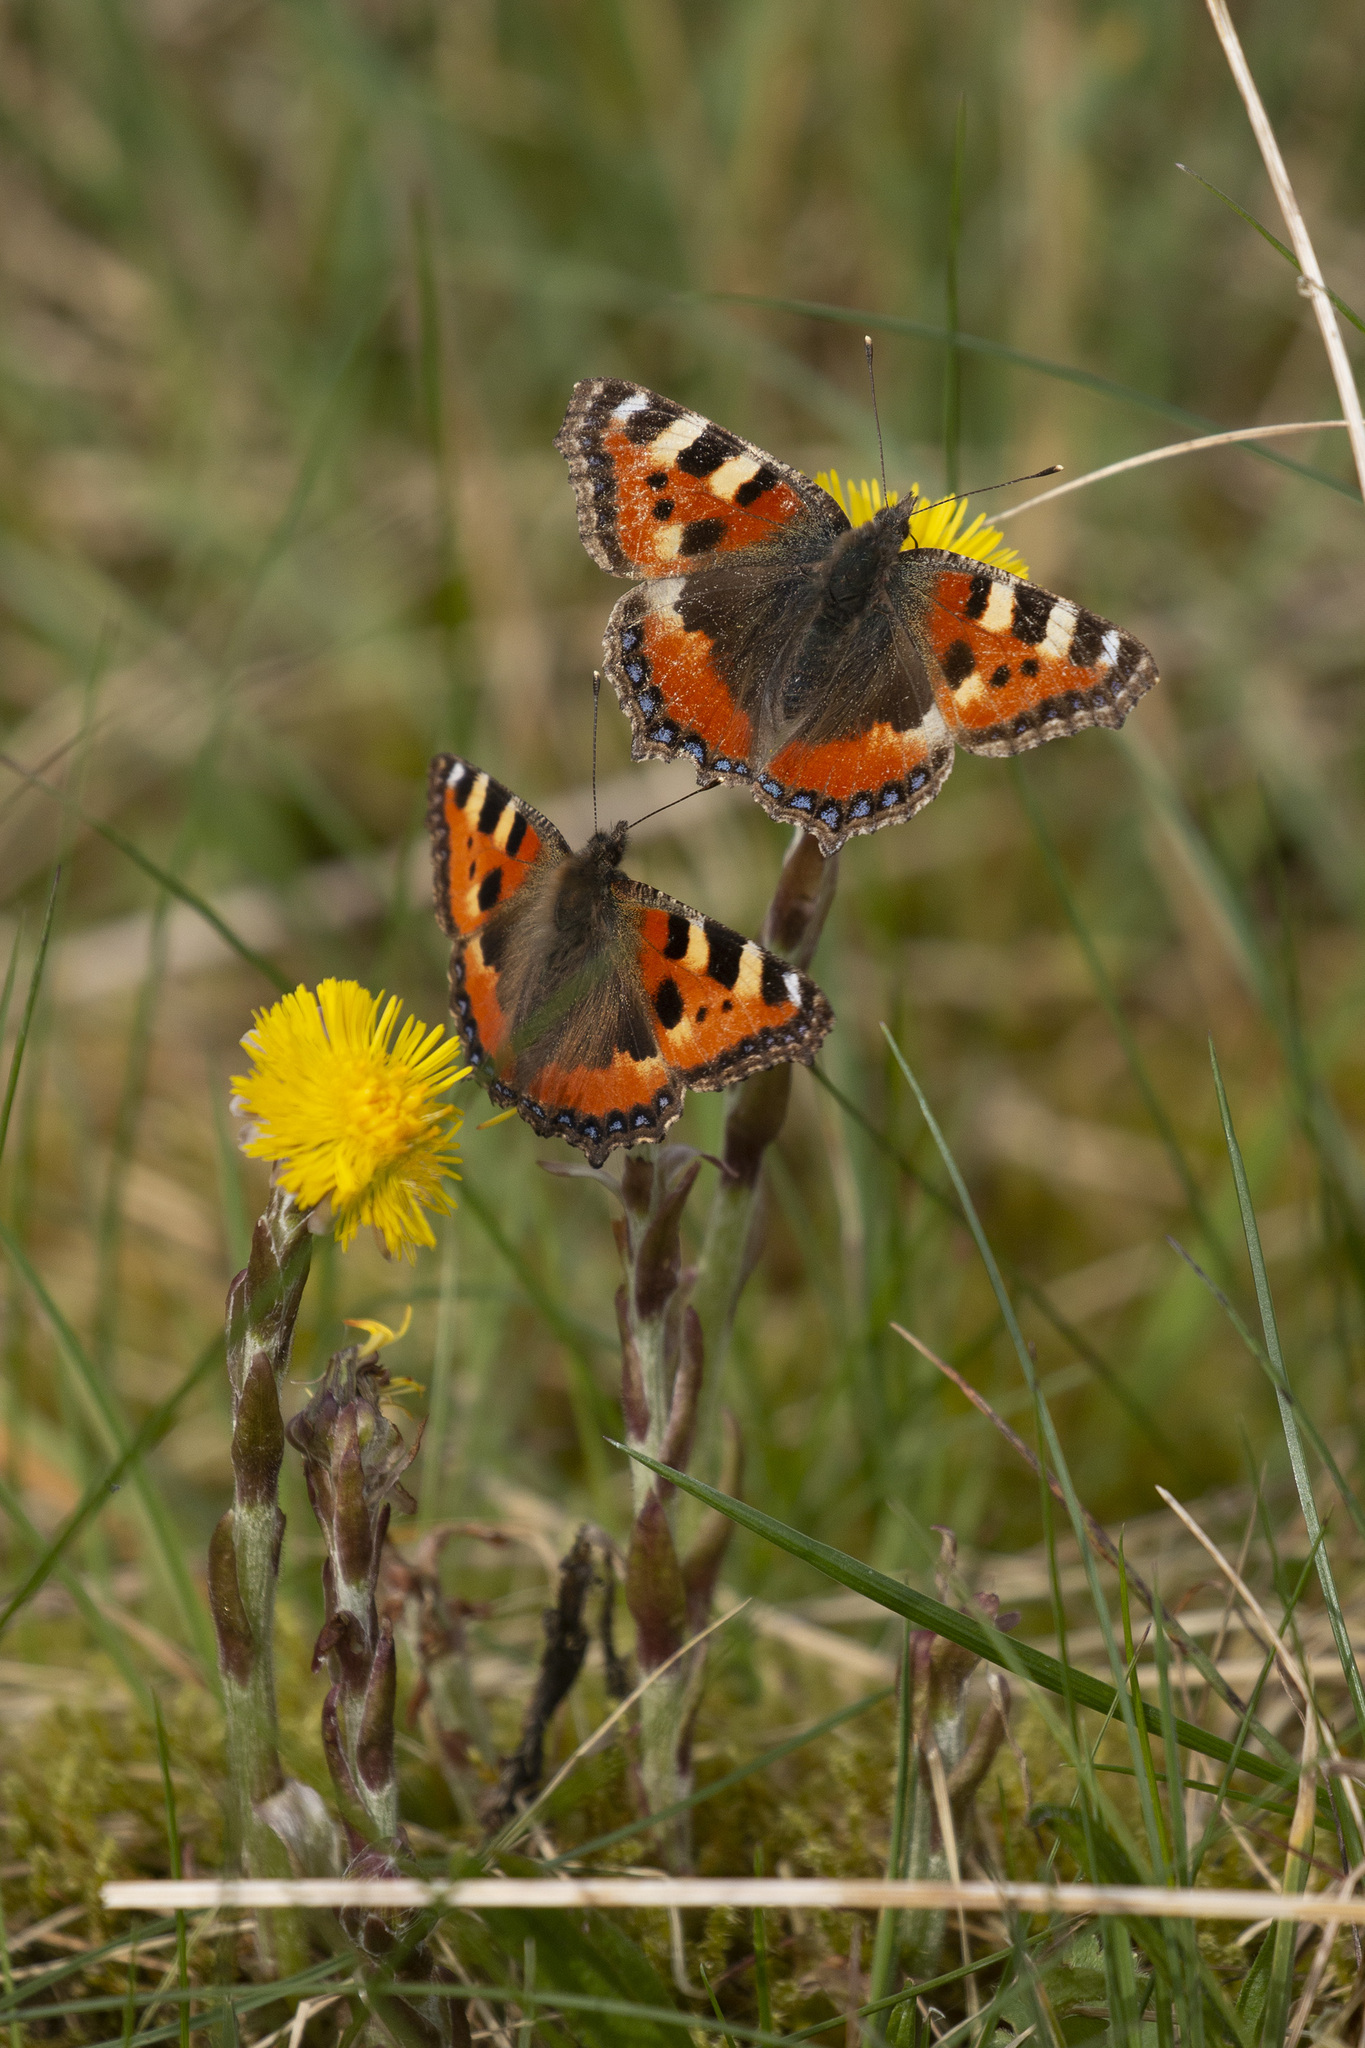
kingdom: Animalia
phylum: Arthropoda
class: Insecta
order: Lepidoptera
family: Nymphalidae
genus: Aglais
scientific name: Aglais urticae
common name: Small tortoiseshell
